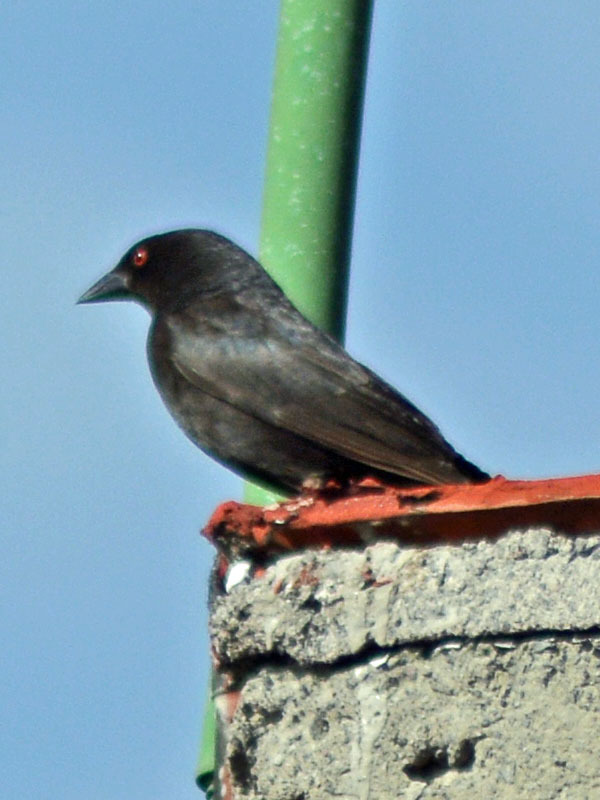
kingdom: Animalia
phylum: Chordata
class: Aves
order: Passeriformes
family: Icteridae
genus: Molothrus
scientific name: Molothrus aeneus
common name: Bronzed cowbird
